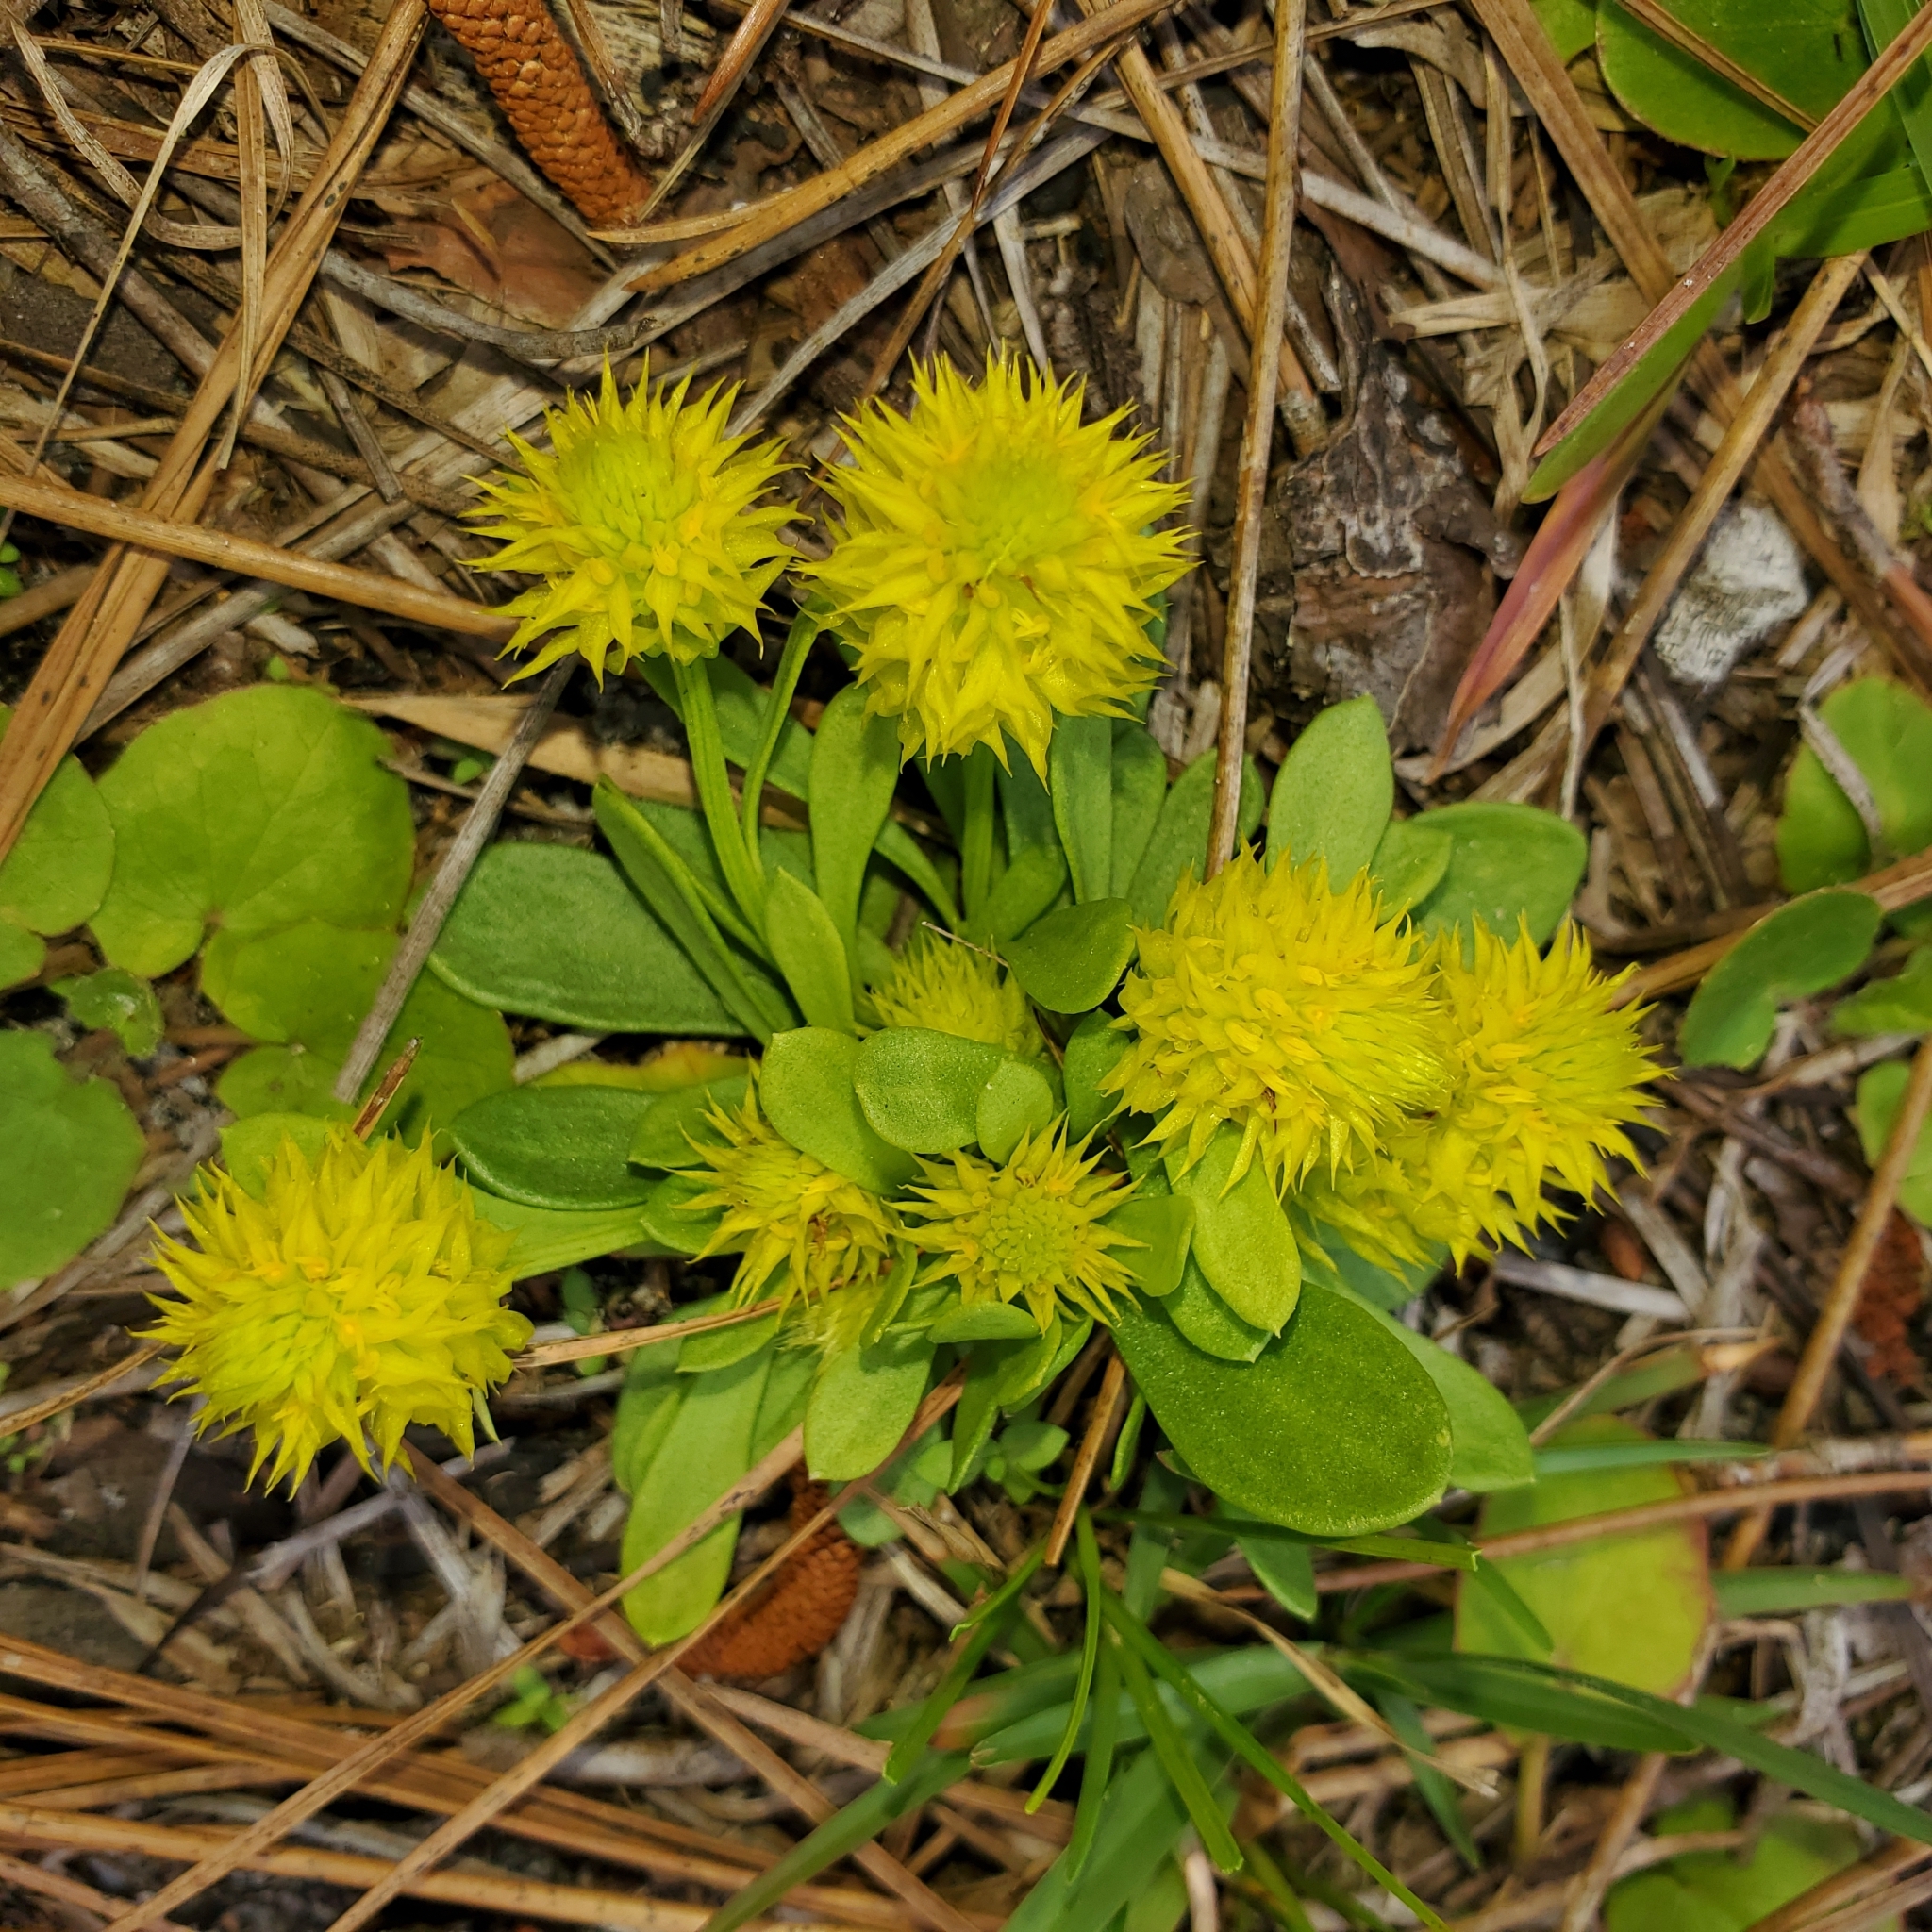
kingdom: Plantae
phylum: Tracheophyta
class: Magnoliopsida
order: Fabales
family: Polygalaceae
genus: Polygala
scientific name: Polygala nana
